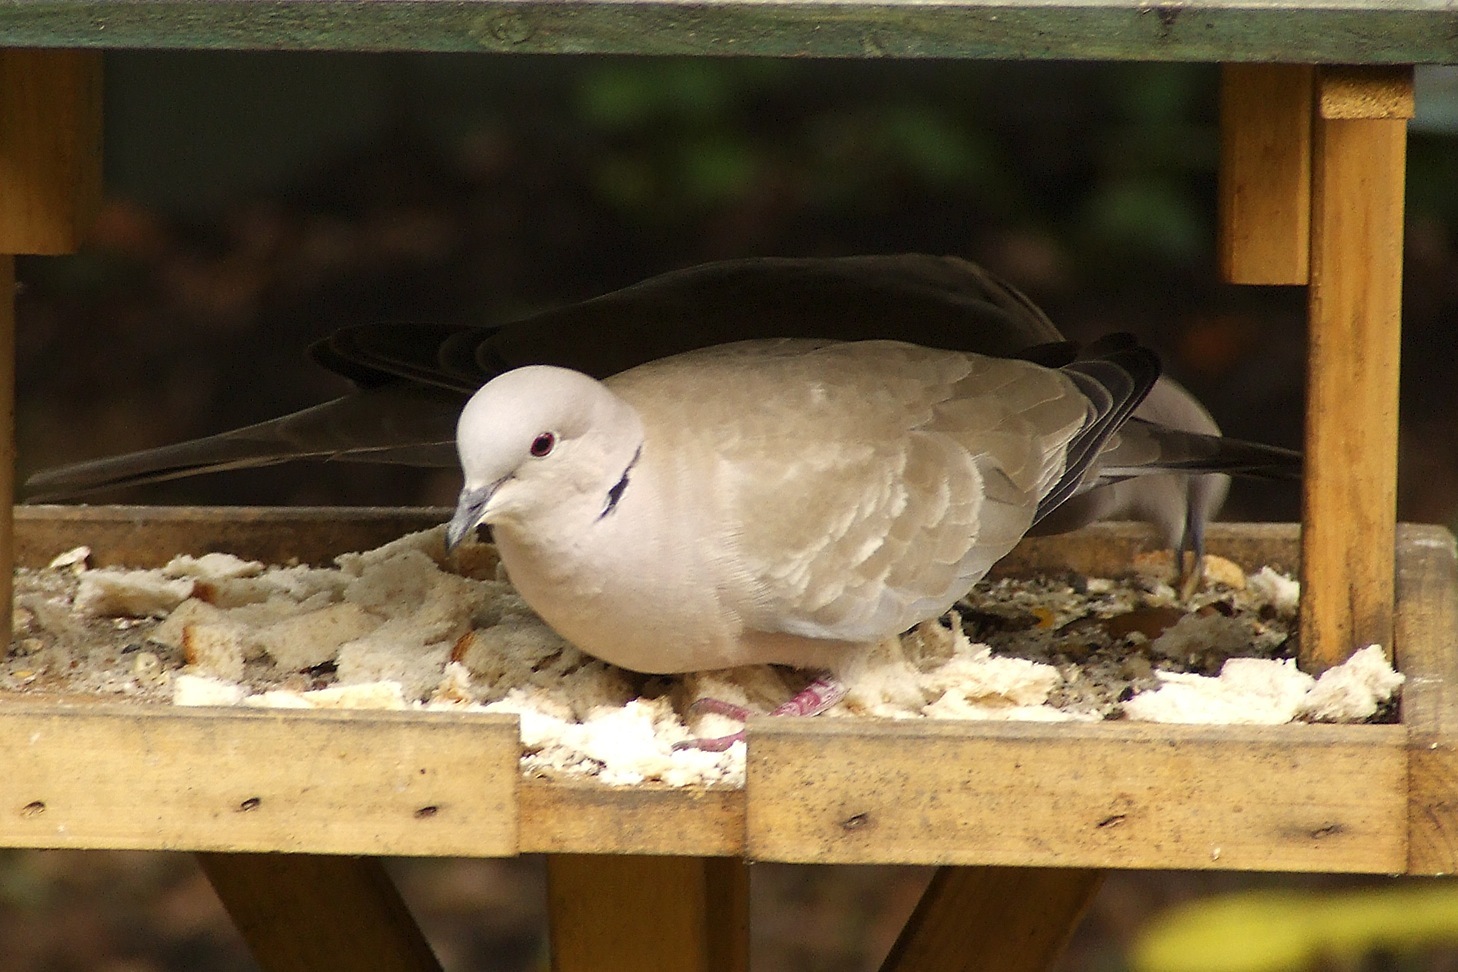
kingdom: Animalia
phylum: Chordata
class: Aves
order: Columbiformes
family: Columbidae
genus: Streptopelia
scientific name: Streptopelia decaocto
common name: Eurasian collared dove
